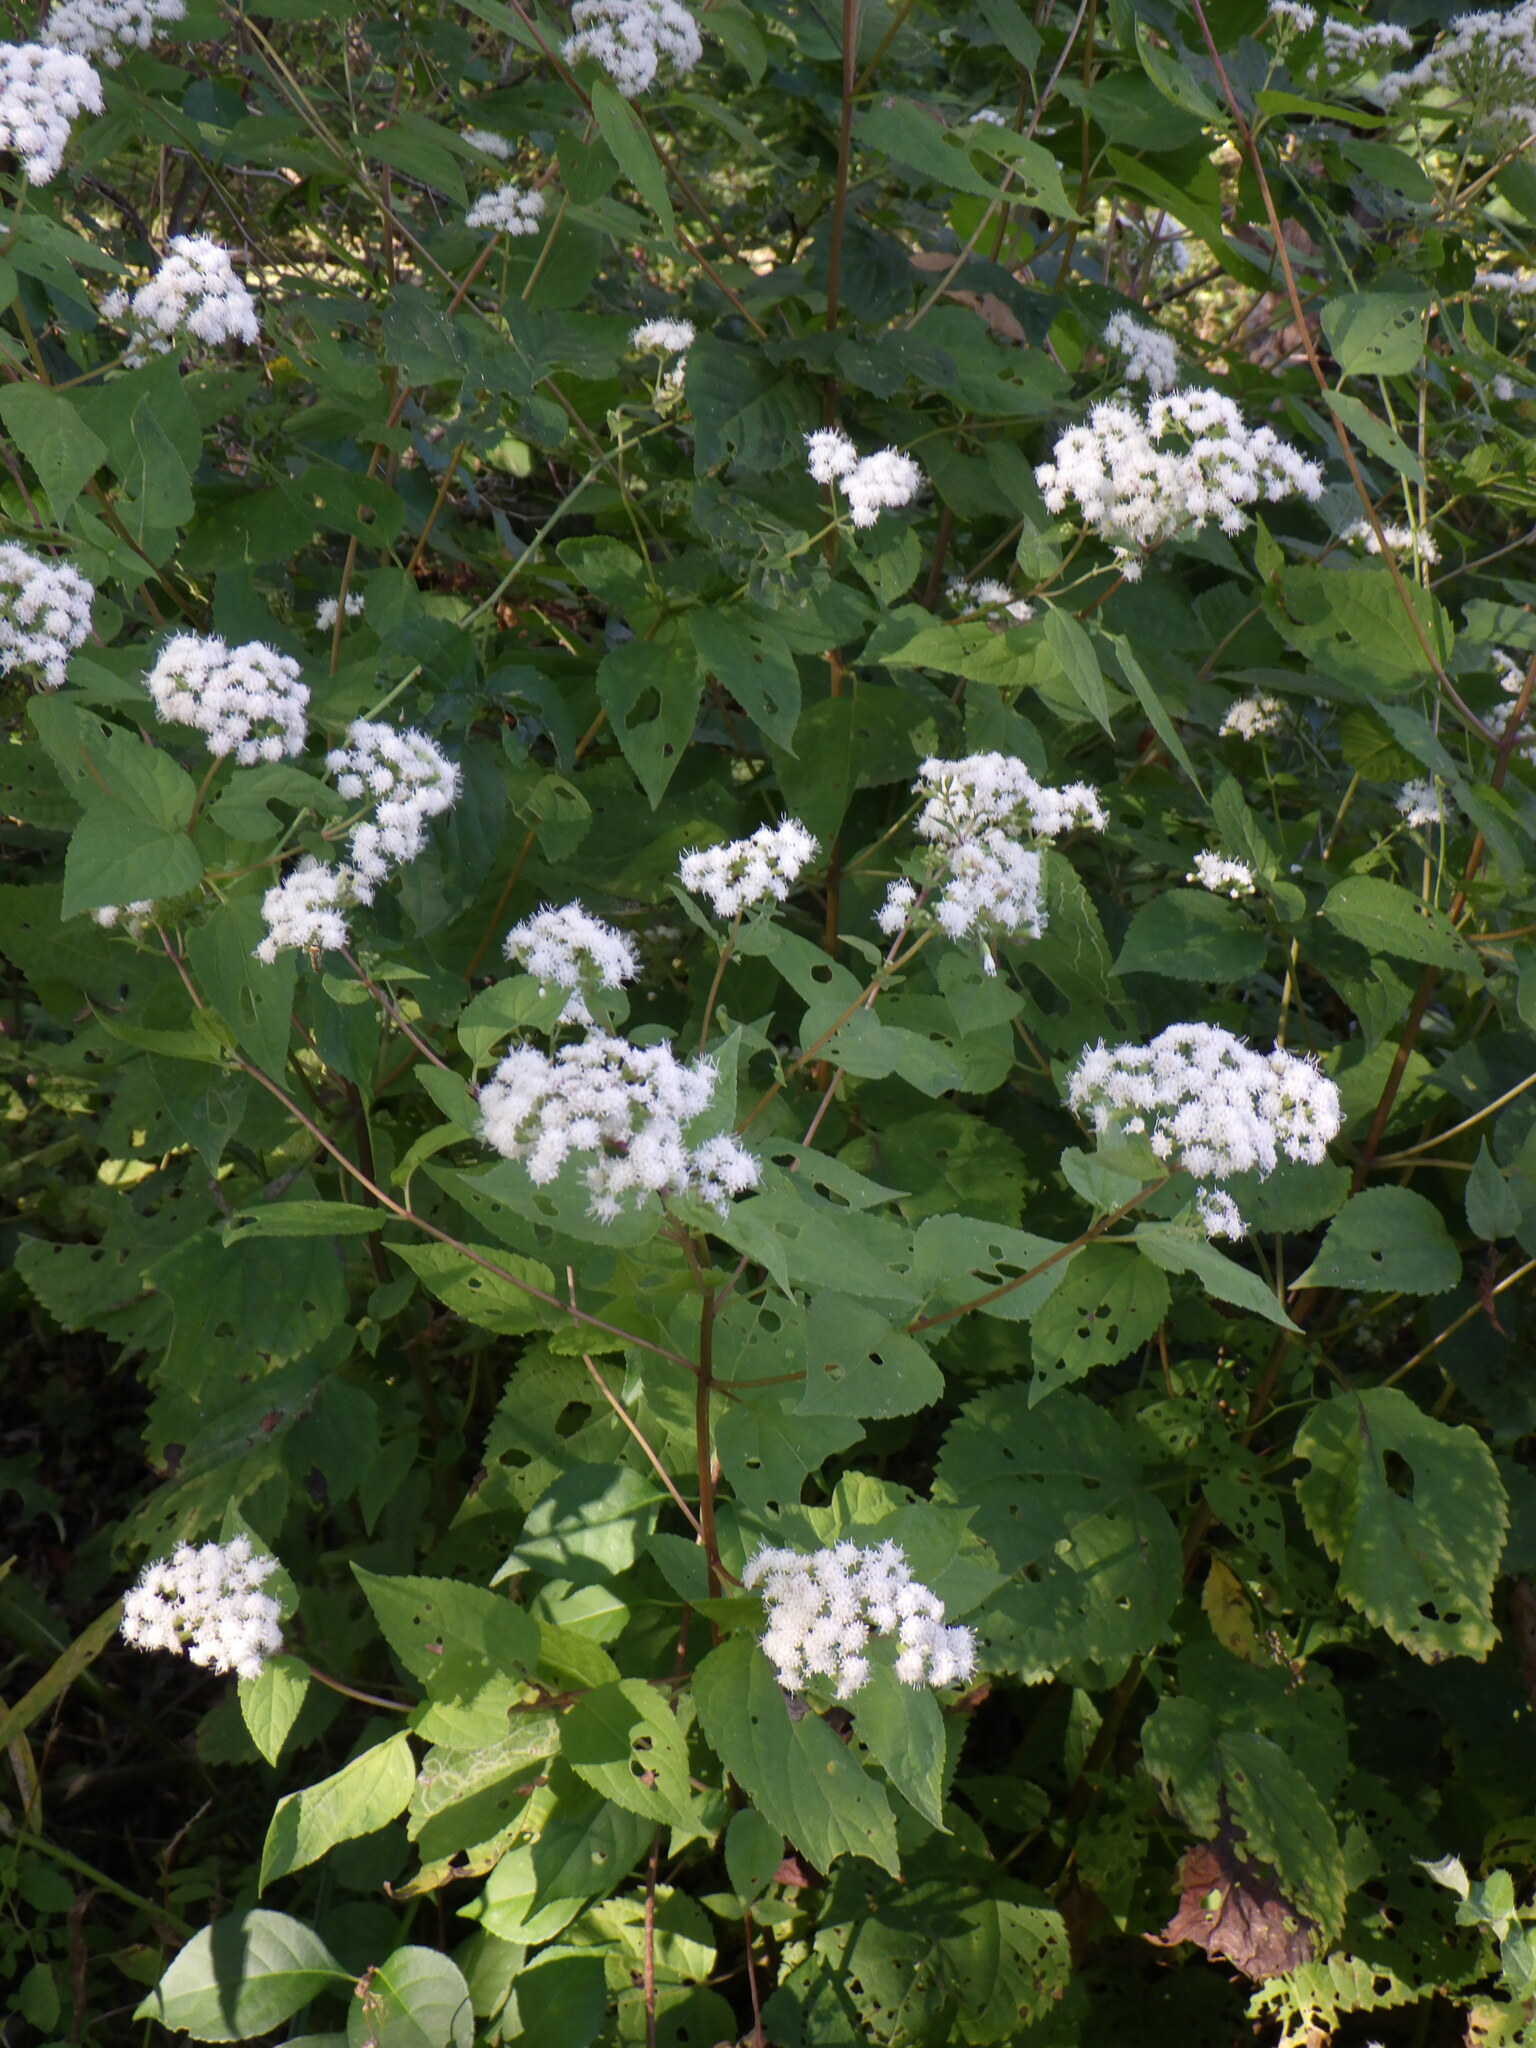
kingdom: Plantae
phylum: Tracheophyta
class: Magnoliopsida
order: Asterales
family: Asteraceae
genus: Ageratina
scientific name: Ageratina altissima
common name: White snakeroot
